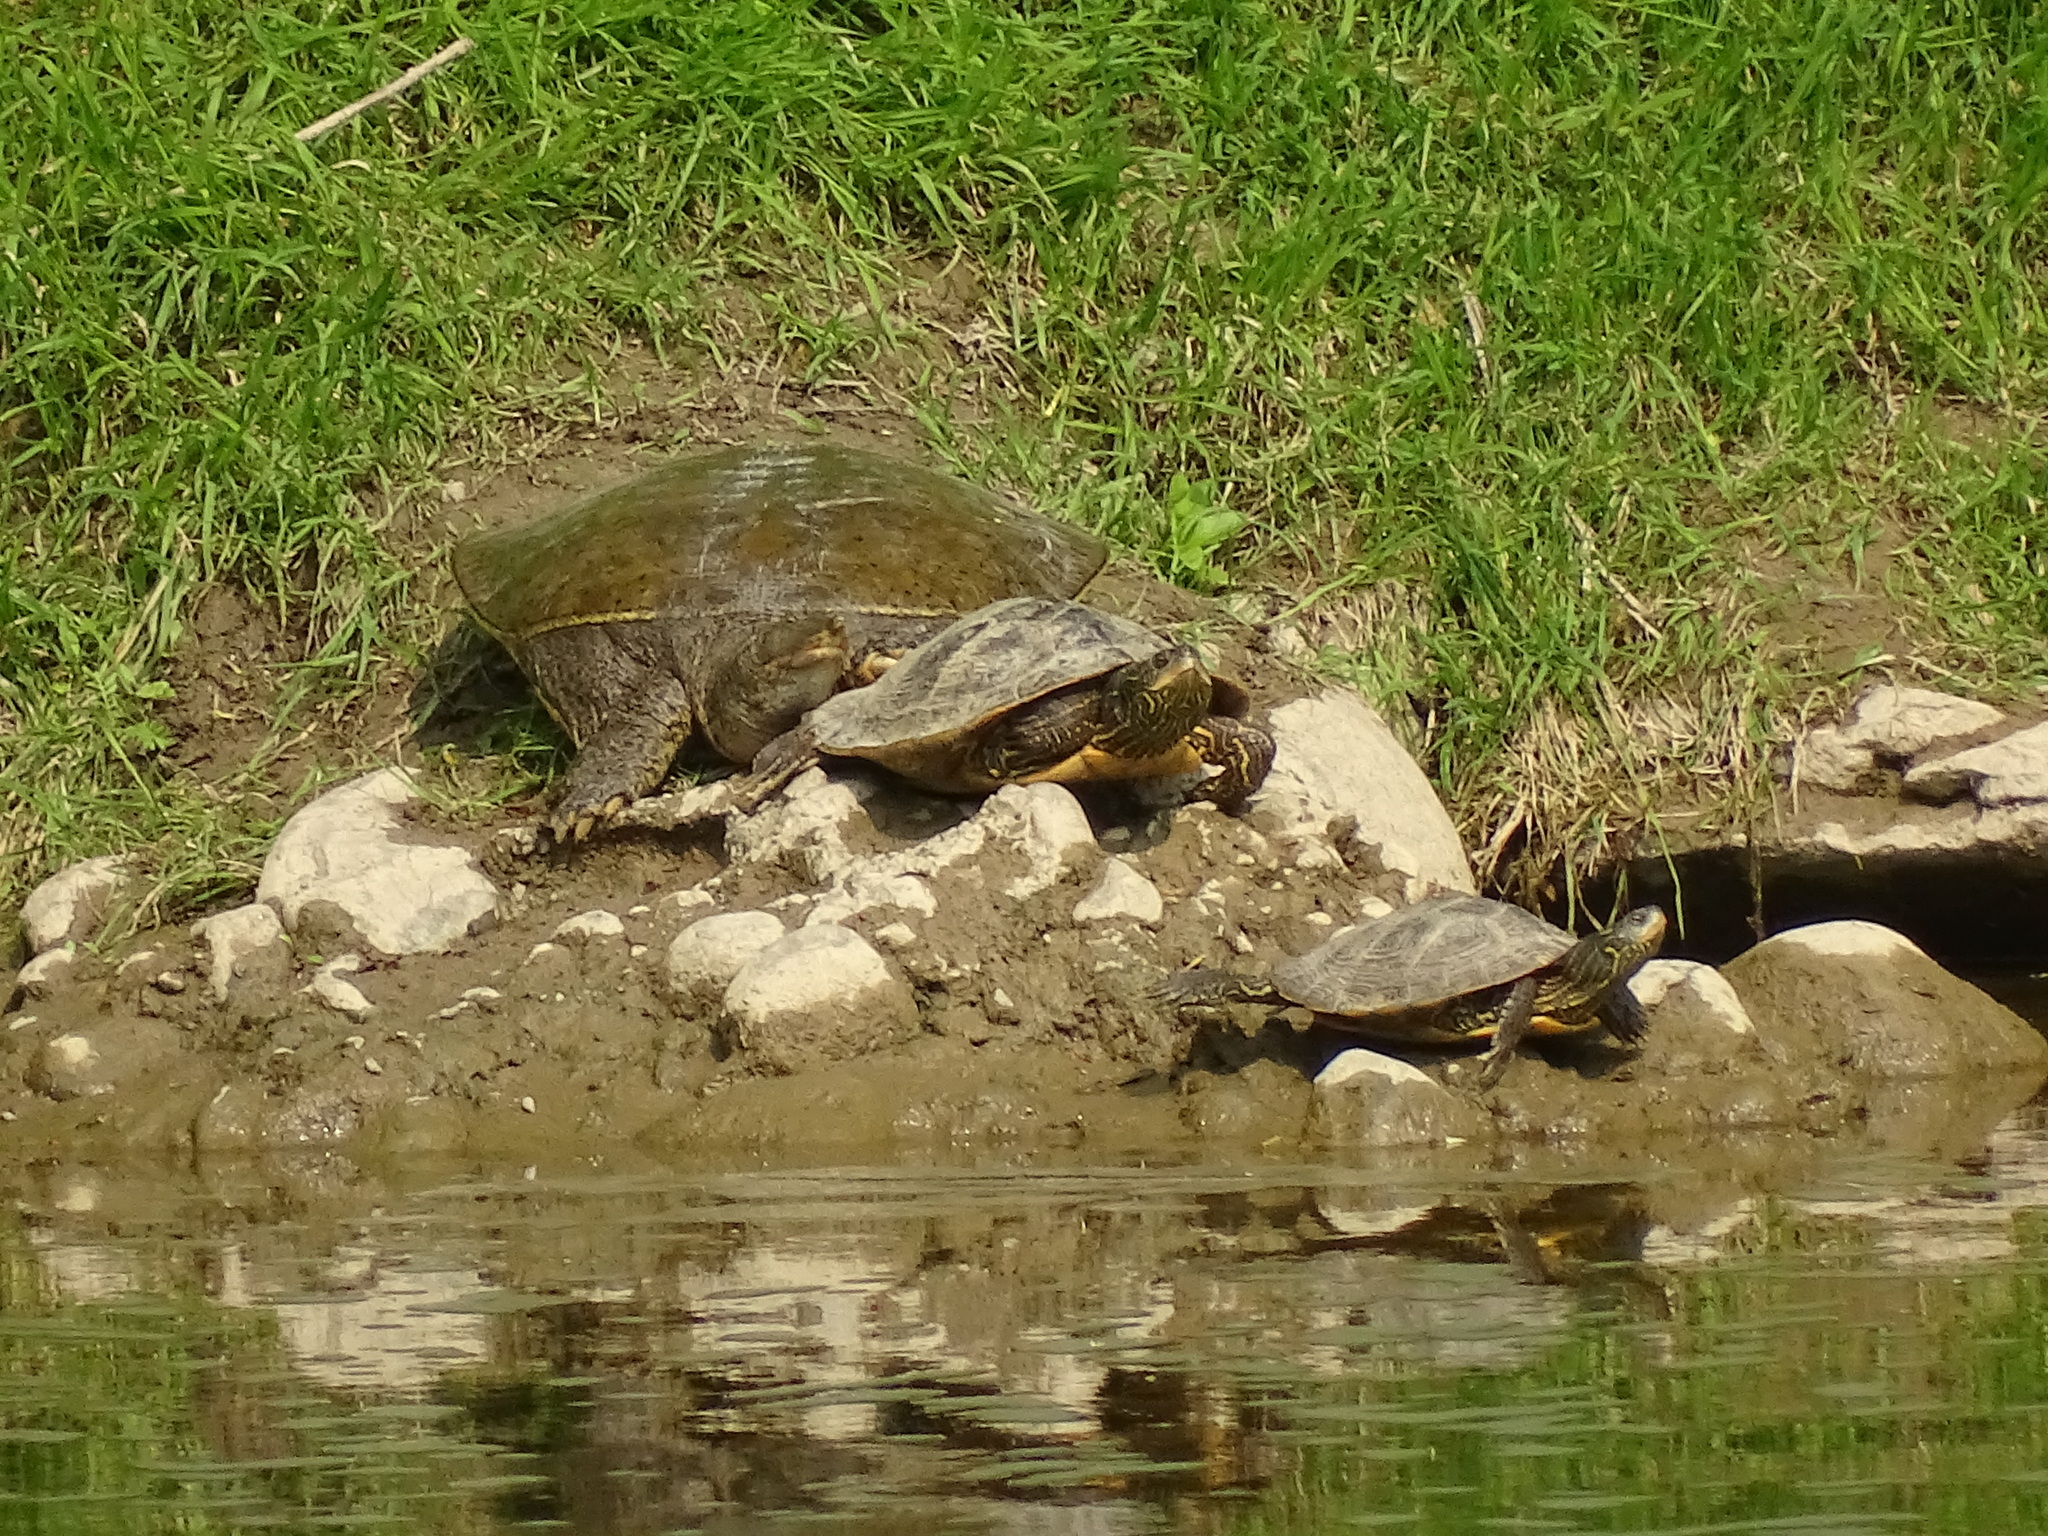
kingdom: Animalia
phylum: Chordata
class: Testudines
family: Trionychidae
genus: Apalone
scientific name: Apalone spinifera
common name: Spiny softshell turtle
